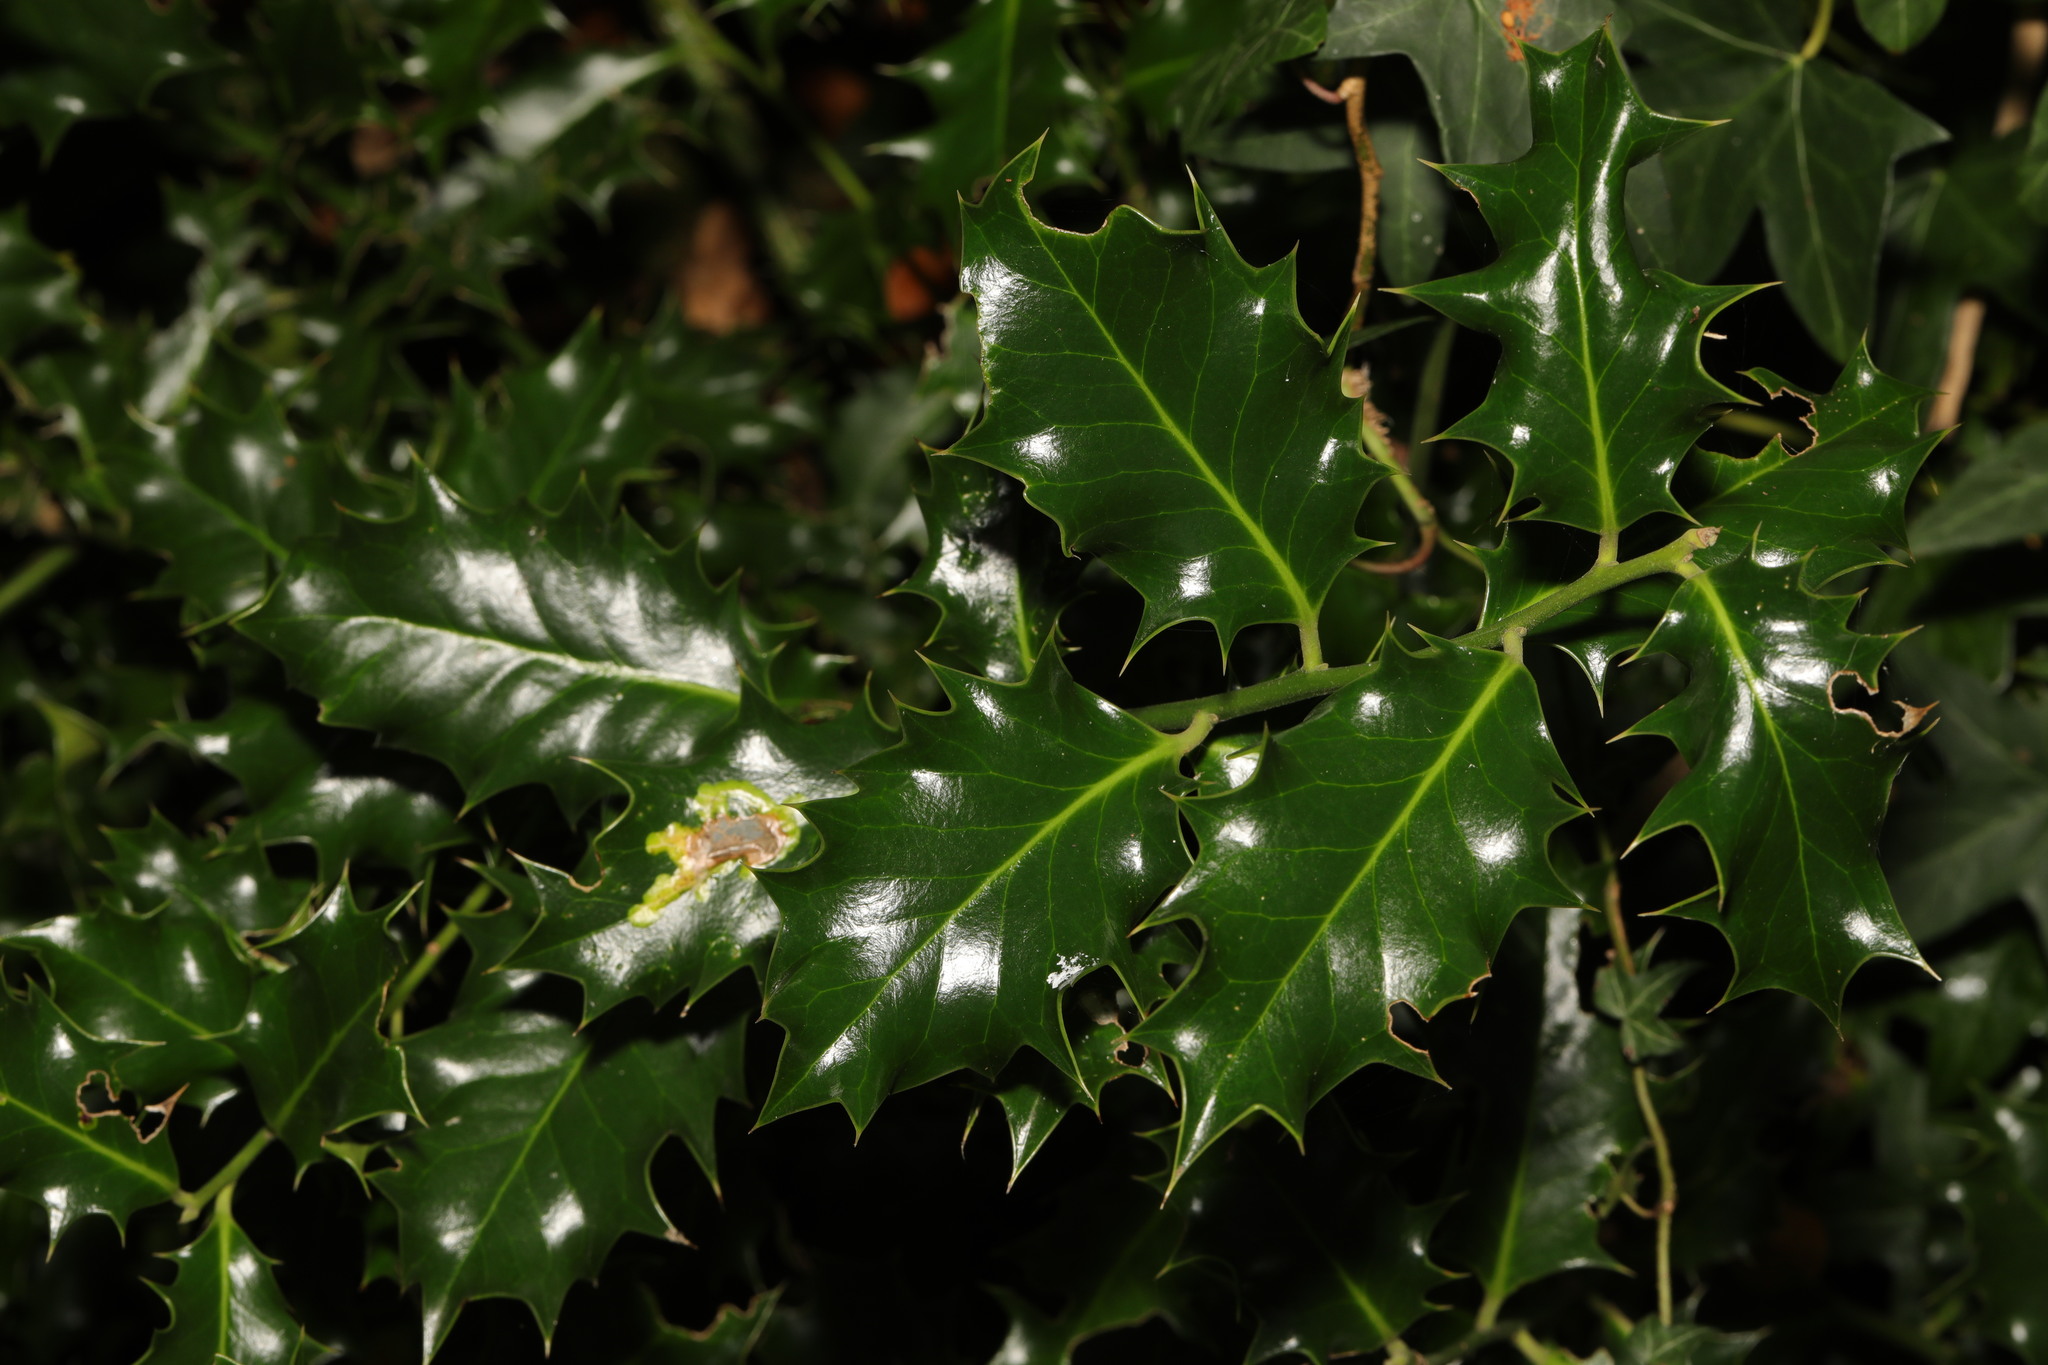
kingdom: Plantae
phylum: Tracheophyta
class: Magnoliopsida
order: Aquifoliales
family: Aquifoliaceae
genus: Ilex
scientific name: Ilex aquifolium
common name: English holly
